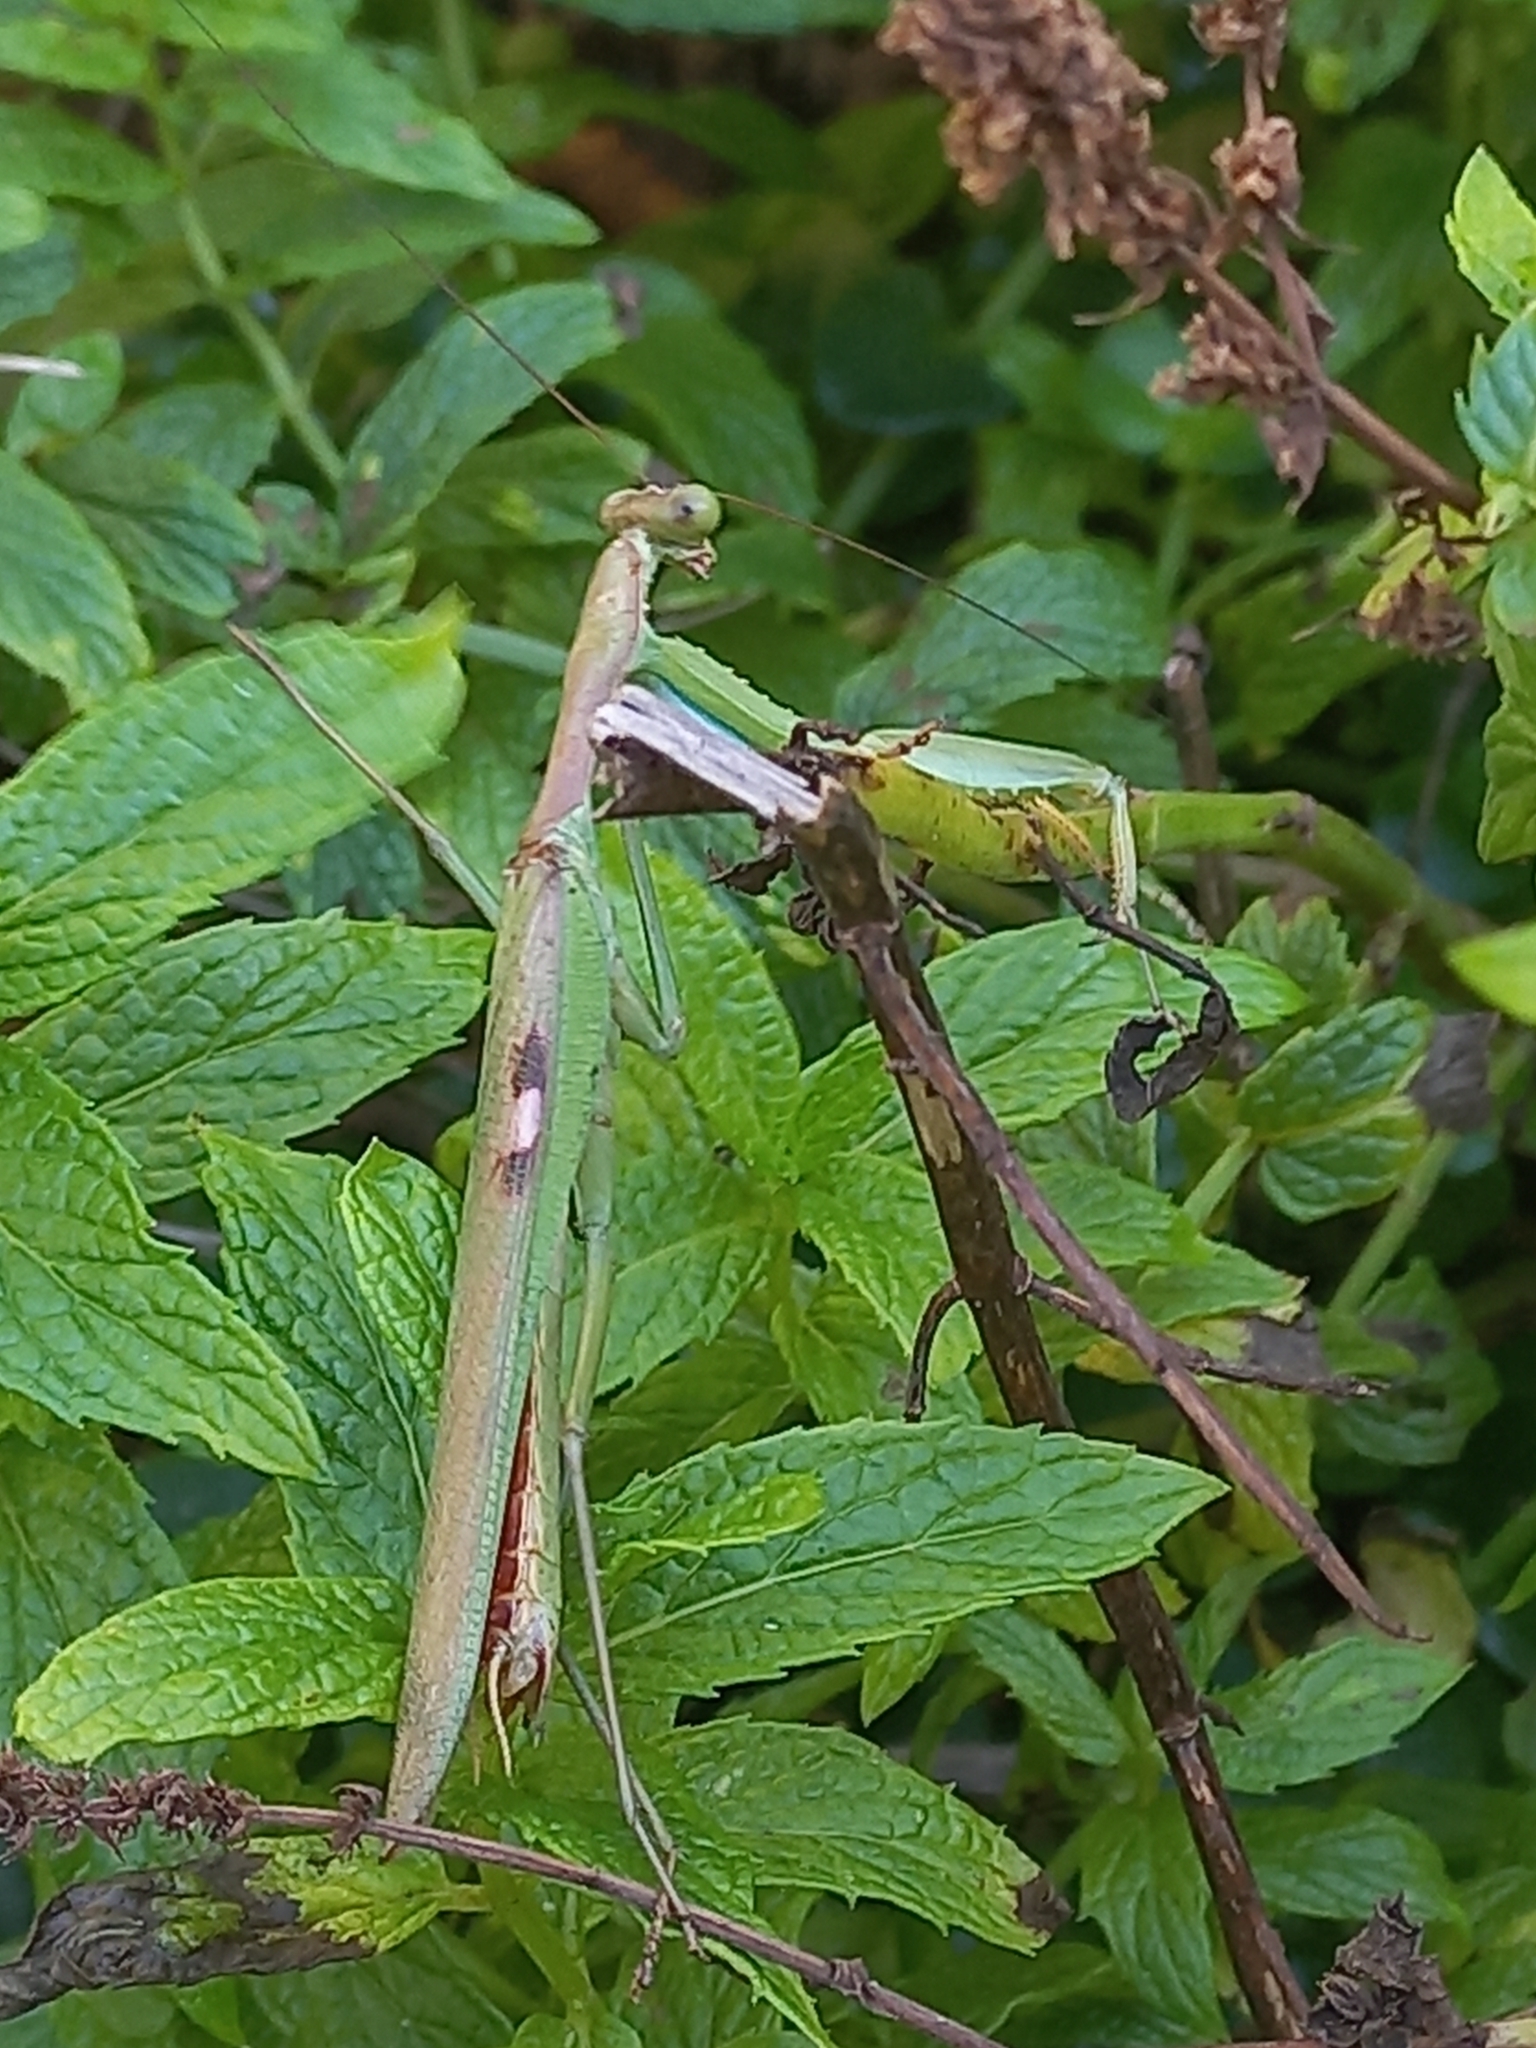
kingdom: Animalia
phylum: Arthropoda
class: Insecta
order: Mantodea
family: Mantidae
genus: Polyspilota
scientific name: Polyspilota aeruginosa
